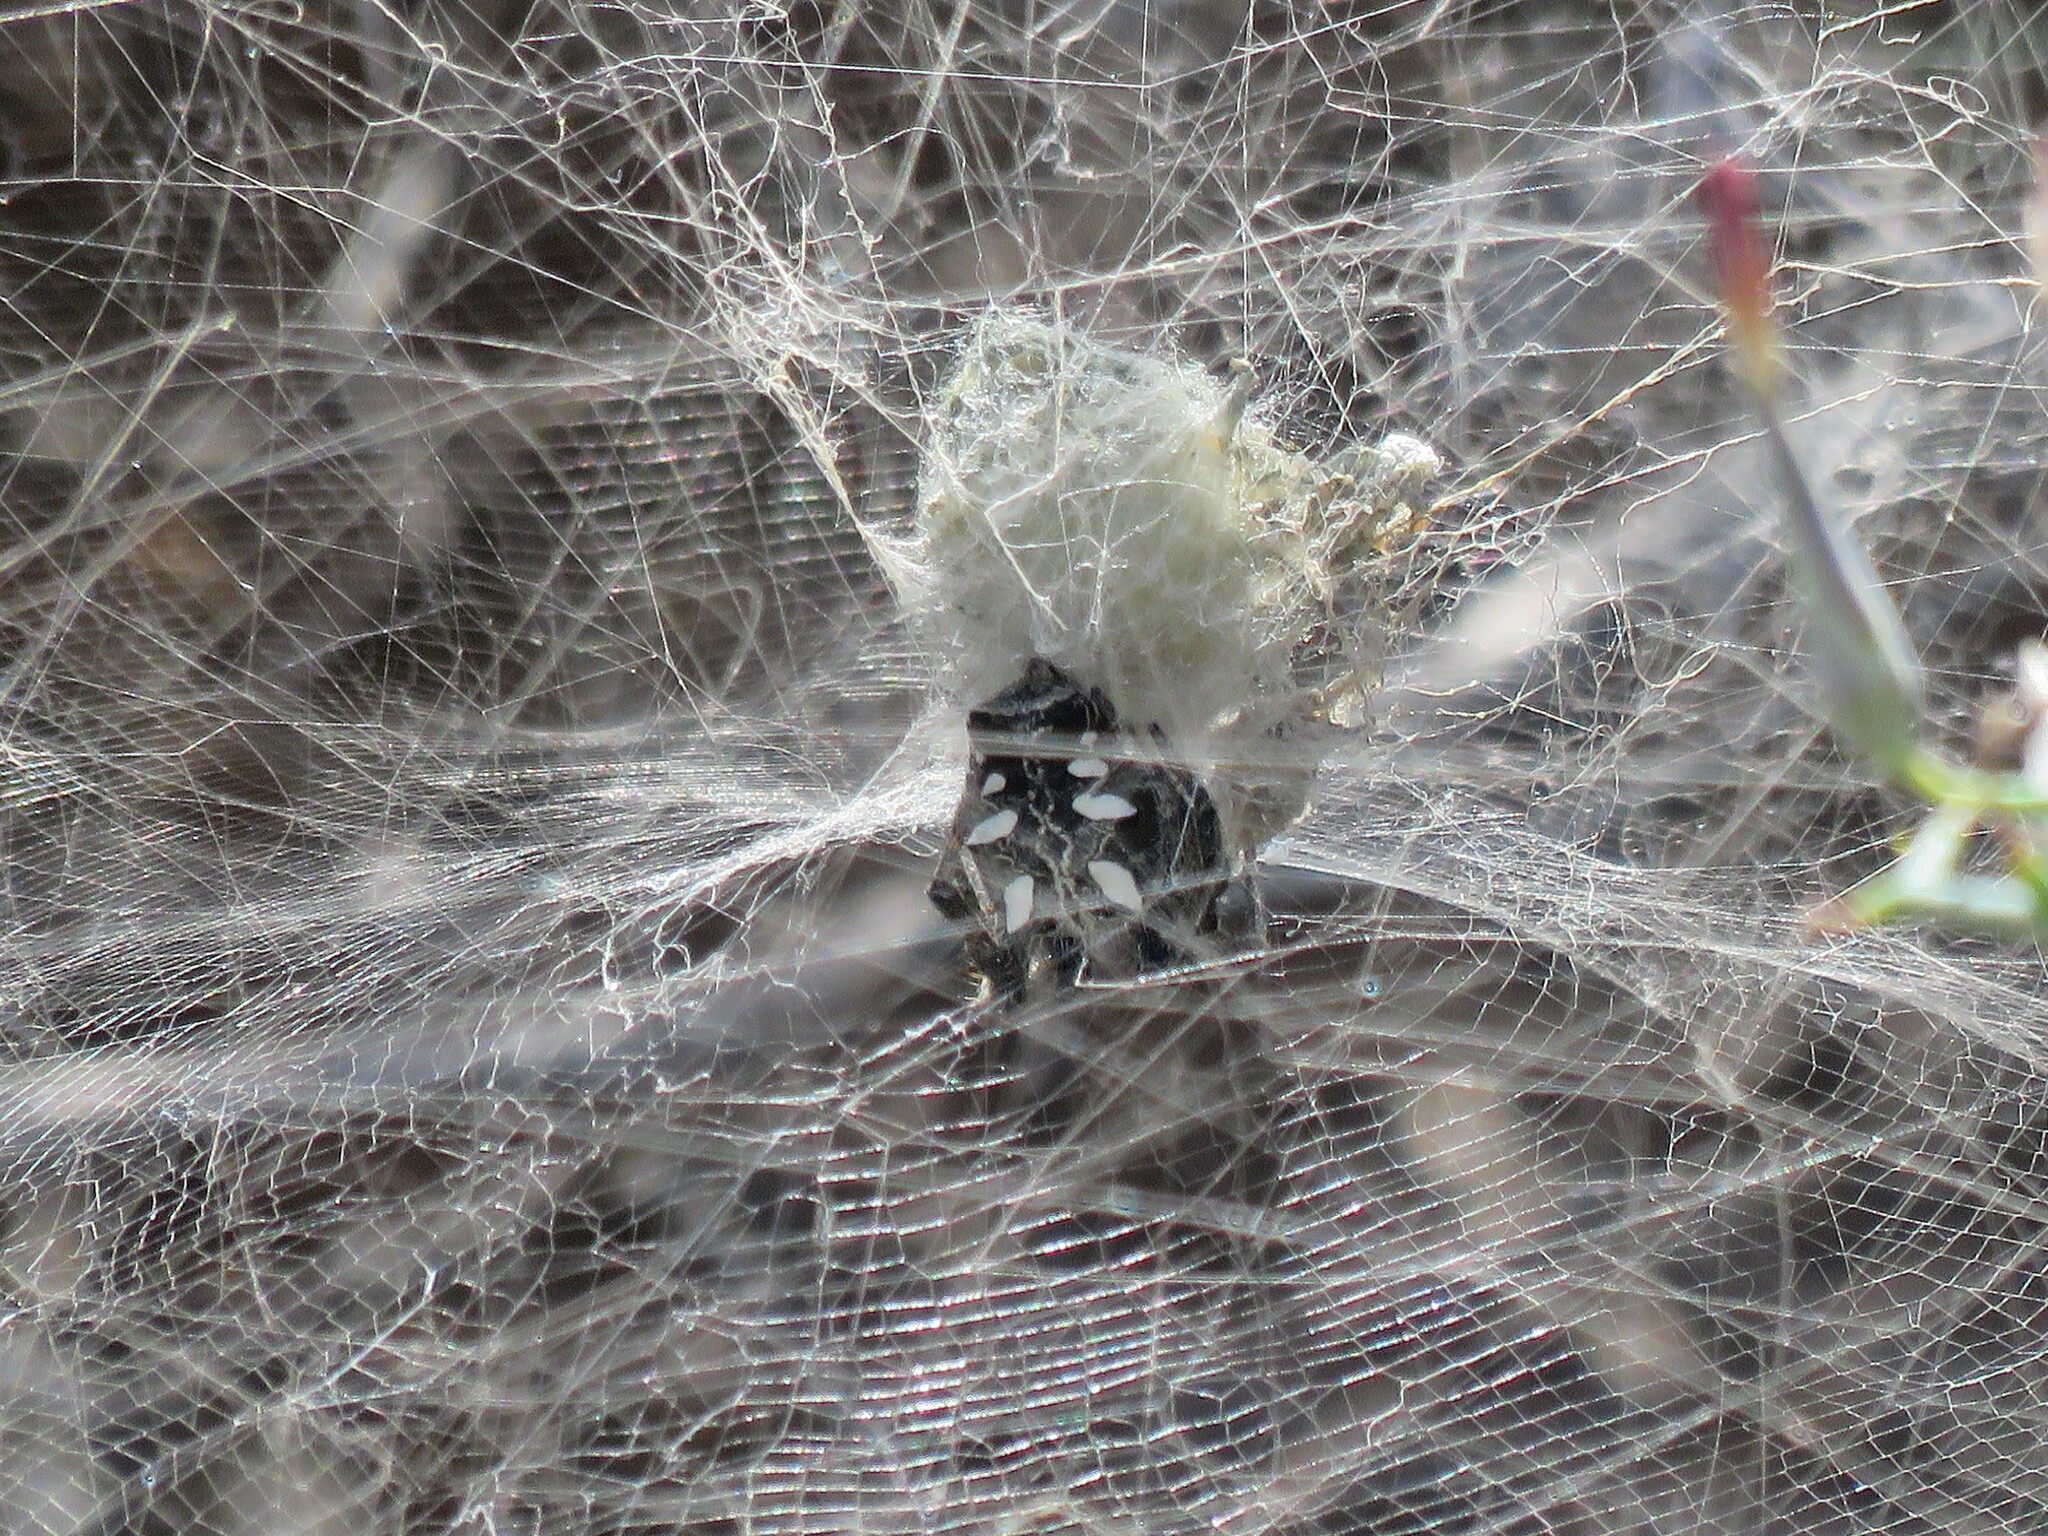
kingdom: Animalia
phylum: Arthropoda
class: Arachnida
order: Araneae
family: Araneidae
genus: Cyrtophora
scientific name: Cyrtophora citricola
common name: Orb weavers
